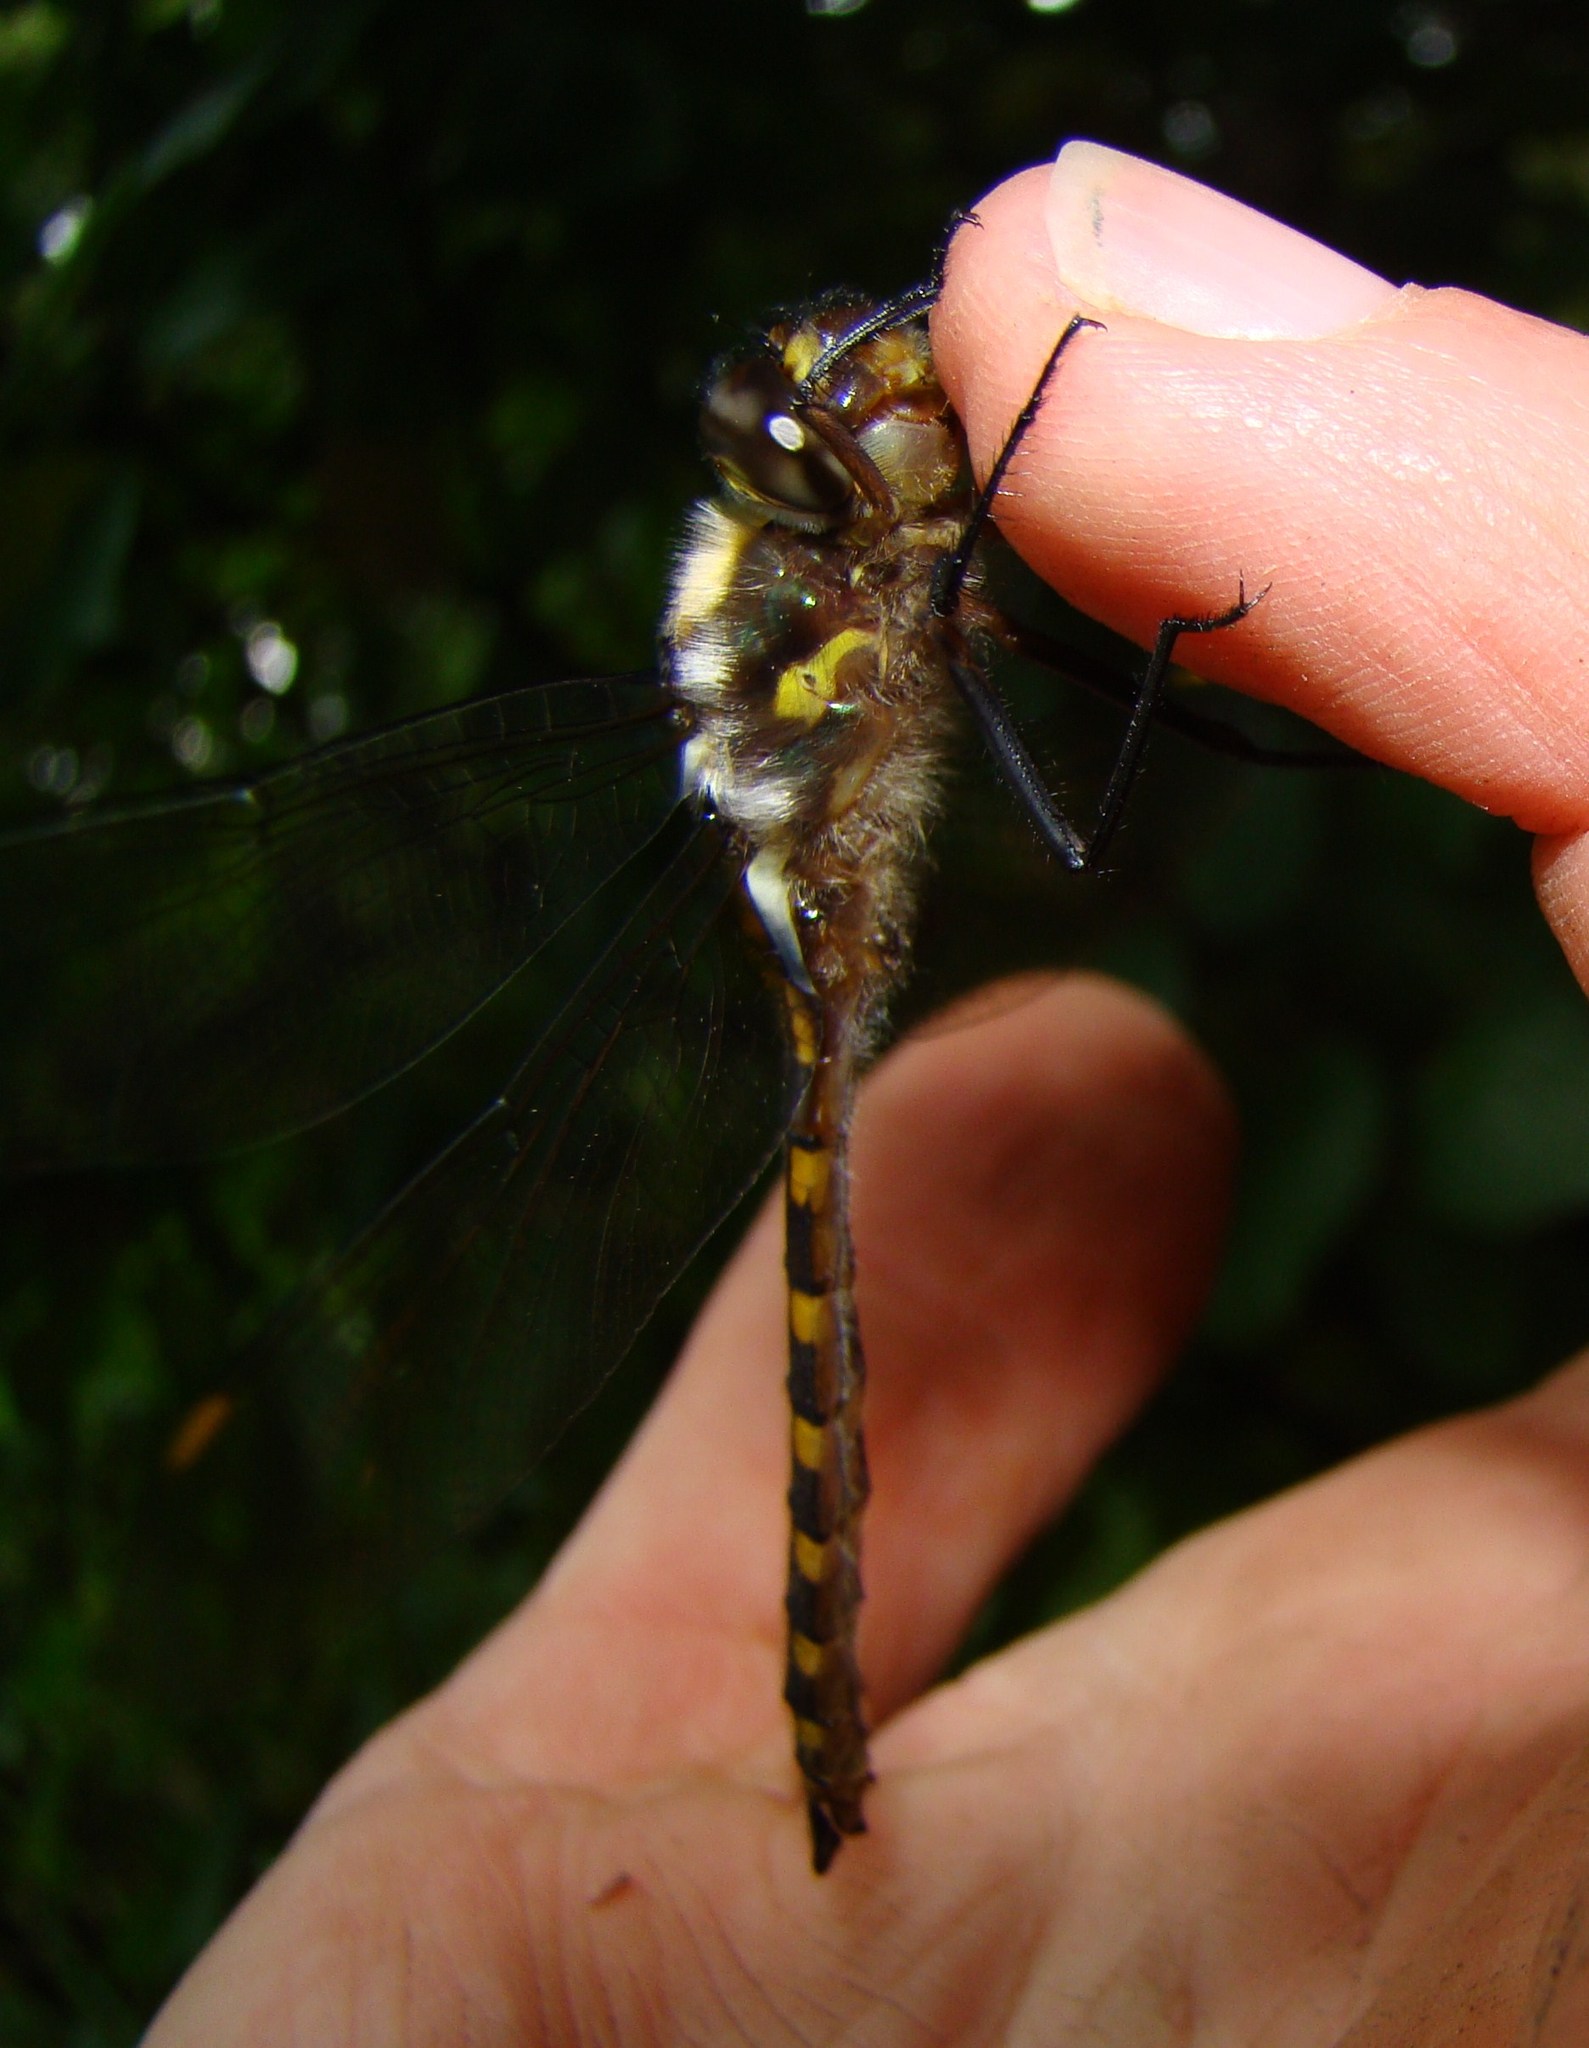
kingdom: Animalia
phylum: Arthropoda
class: Insecta
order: Odonata
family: Corduliidae
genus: Procordulia
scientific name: Procordulia grayi
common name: Yellow spotted dragonfly
